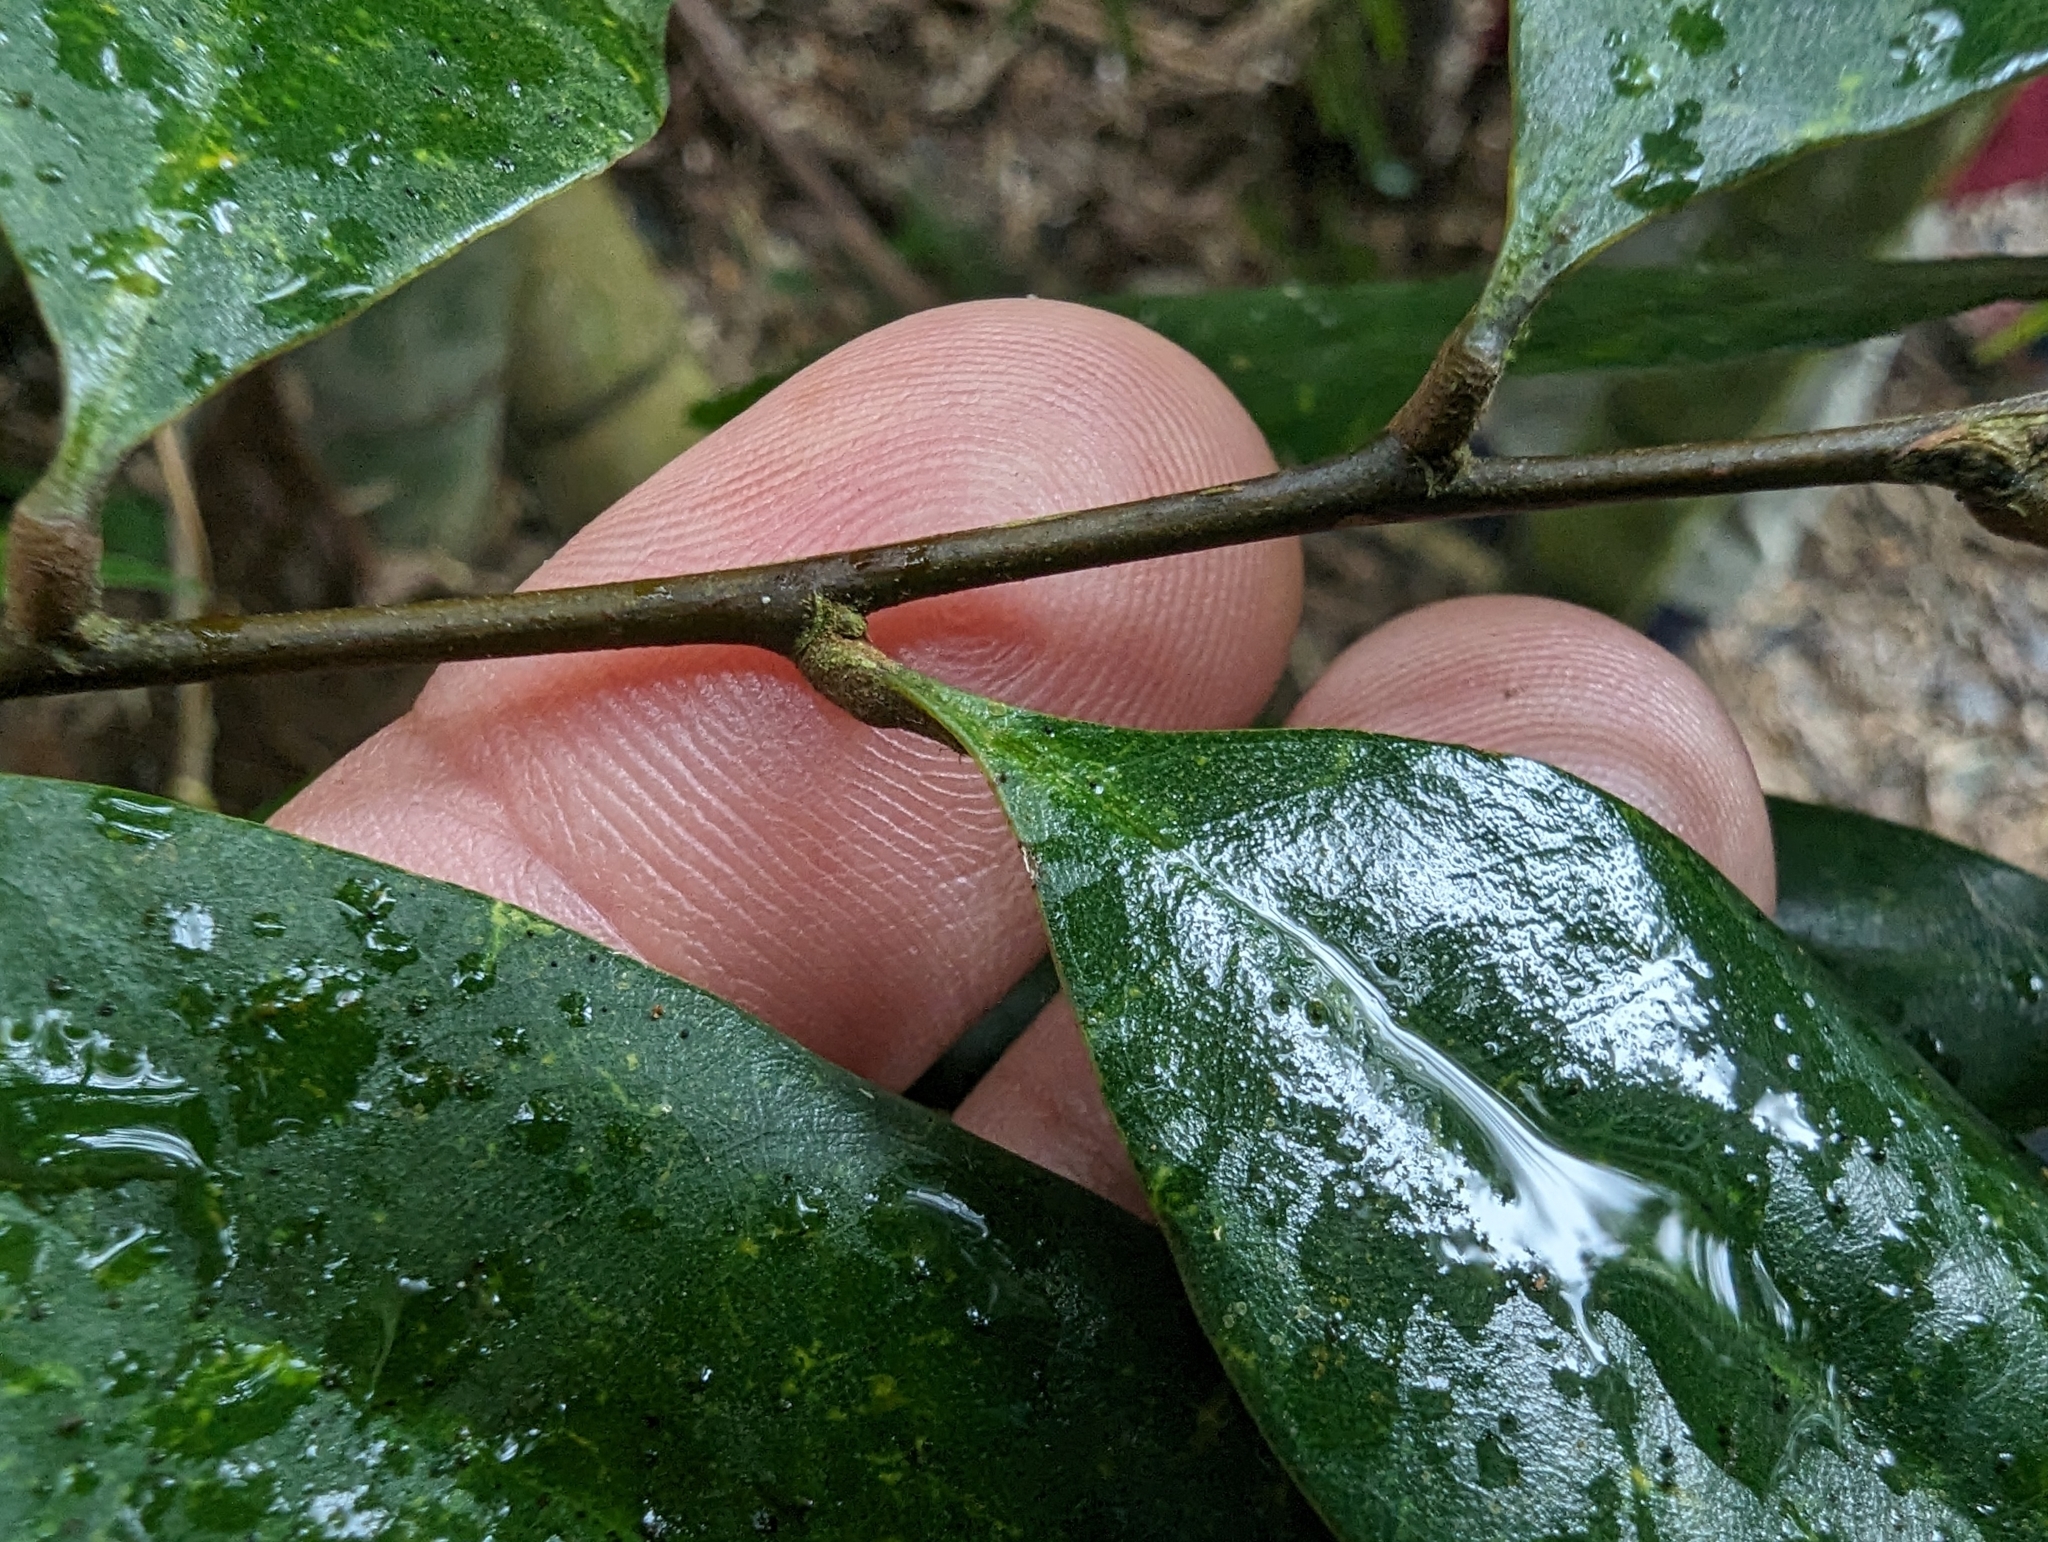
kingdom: Plantae
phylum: Tracheophyta
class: Magnoliopsida
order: Fagales
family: Fagaceae
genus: Castanopsis
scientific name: Castanopsis fargesii
